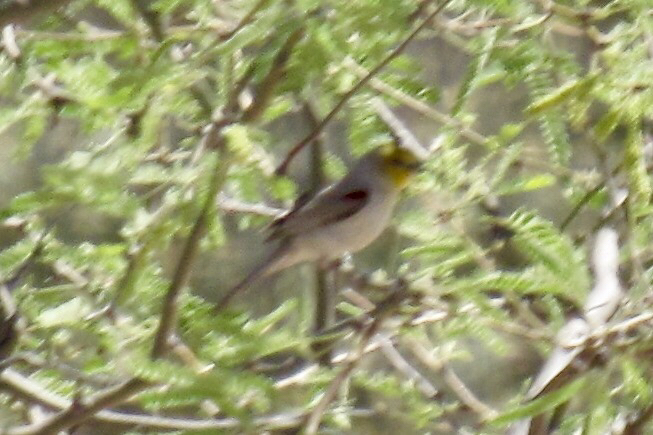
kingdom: Animalia
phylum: Chordata
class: Aves
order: Passeriformes
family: Remizidae
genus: Auriparus
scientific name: Auriparus flaviceps
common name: Verdin
